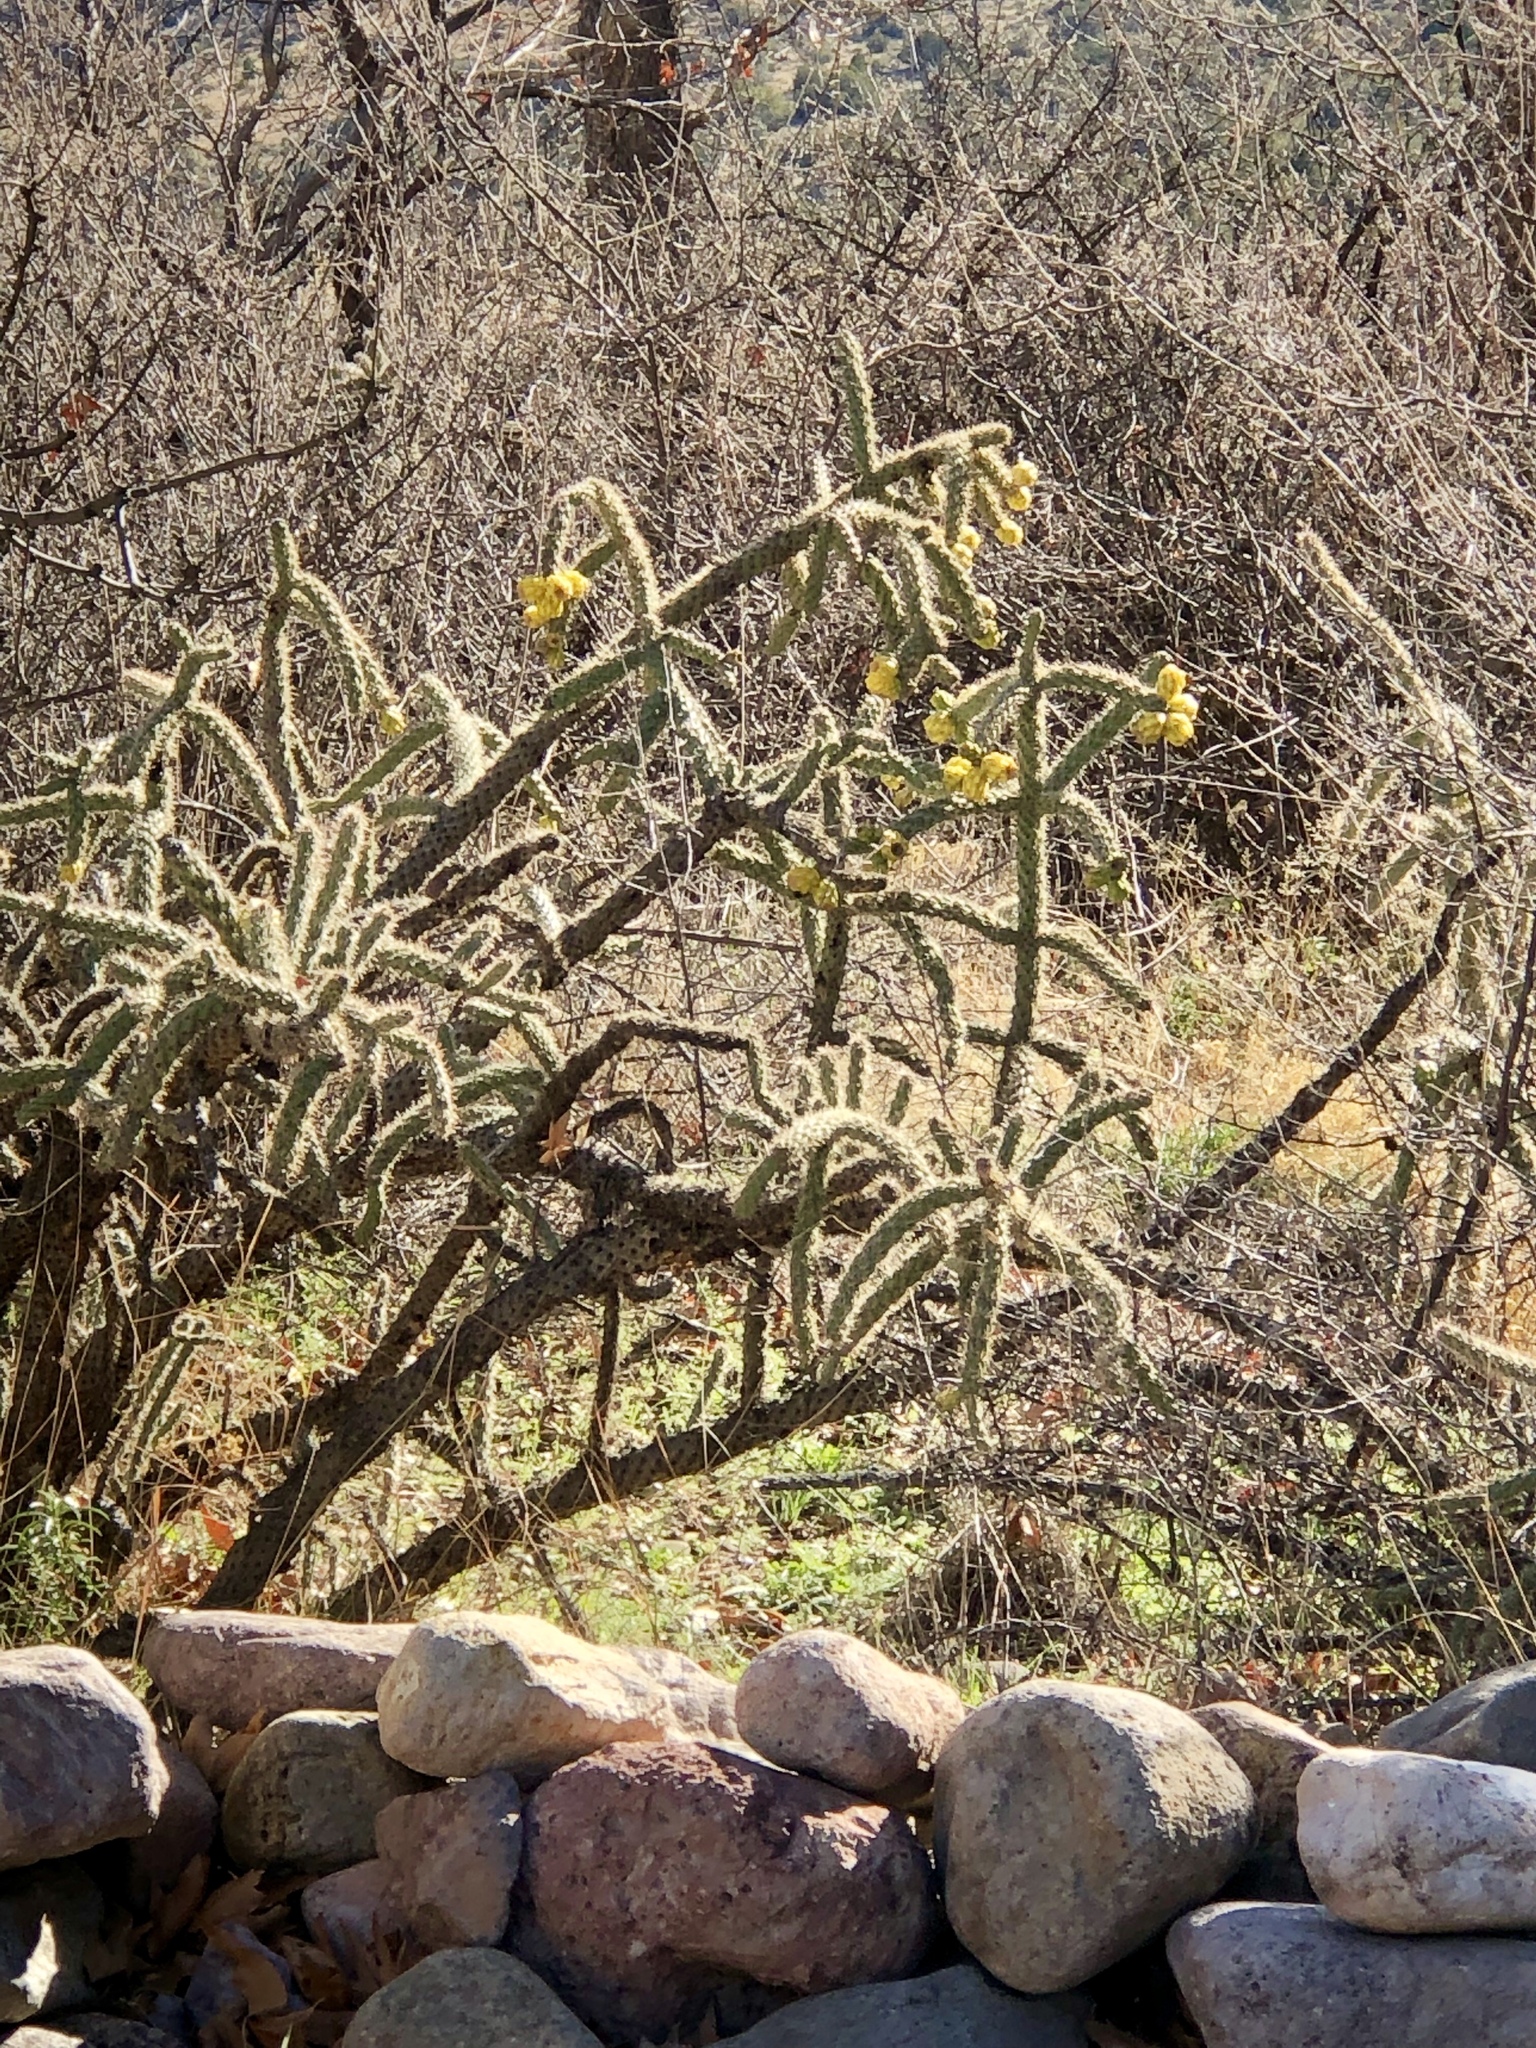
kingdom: Plantae
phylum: Tracheophyta
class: Magnoliopsida
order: Caryophyllales
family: Cactaceae
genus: Cylindropuntia
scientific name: Cylindropuntia imbricata
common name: Candelabrum cactus
